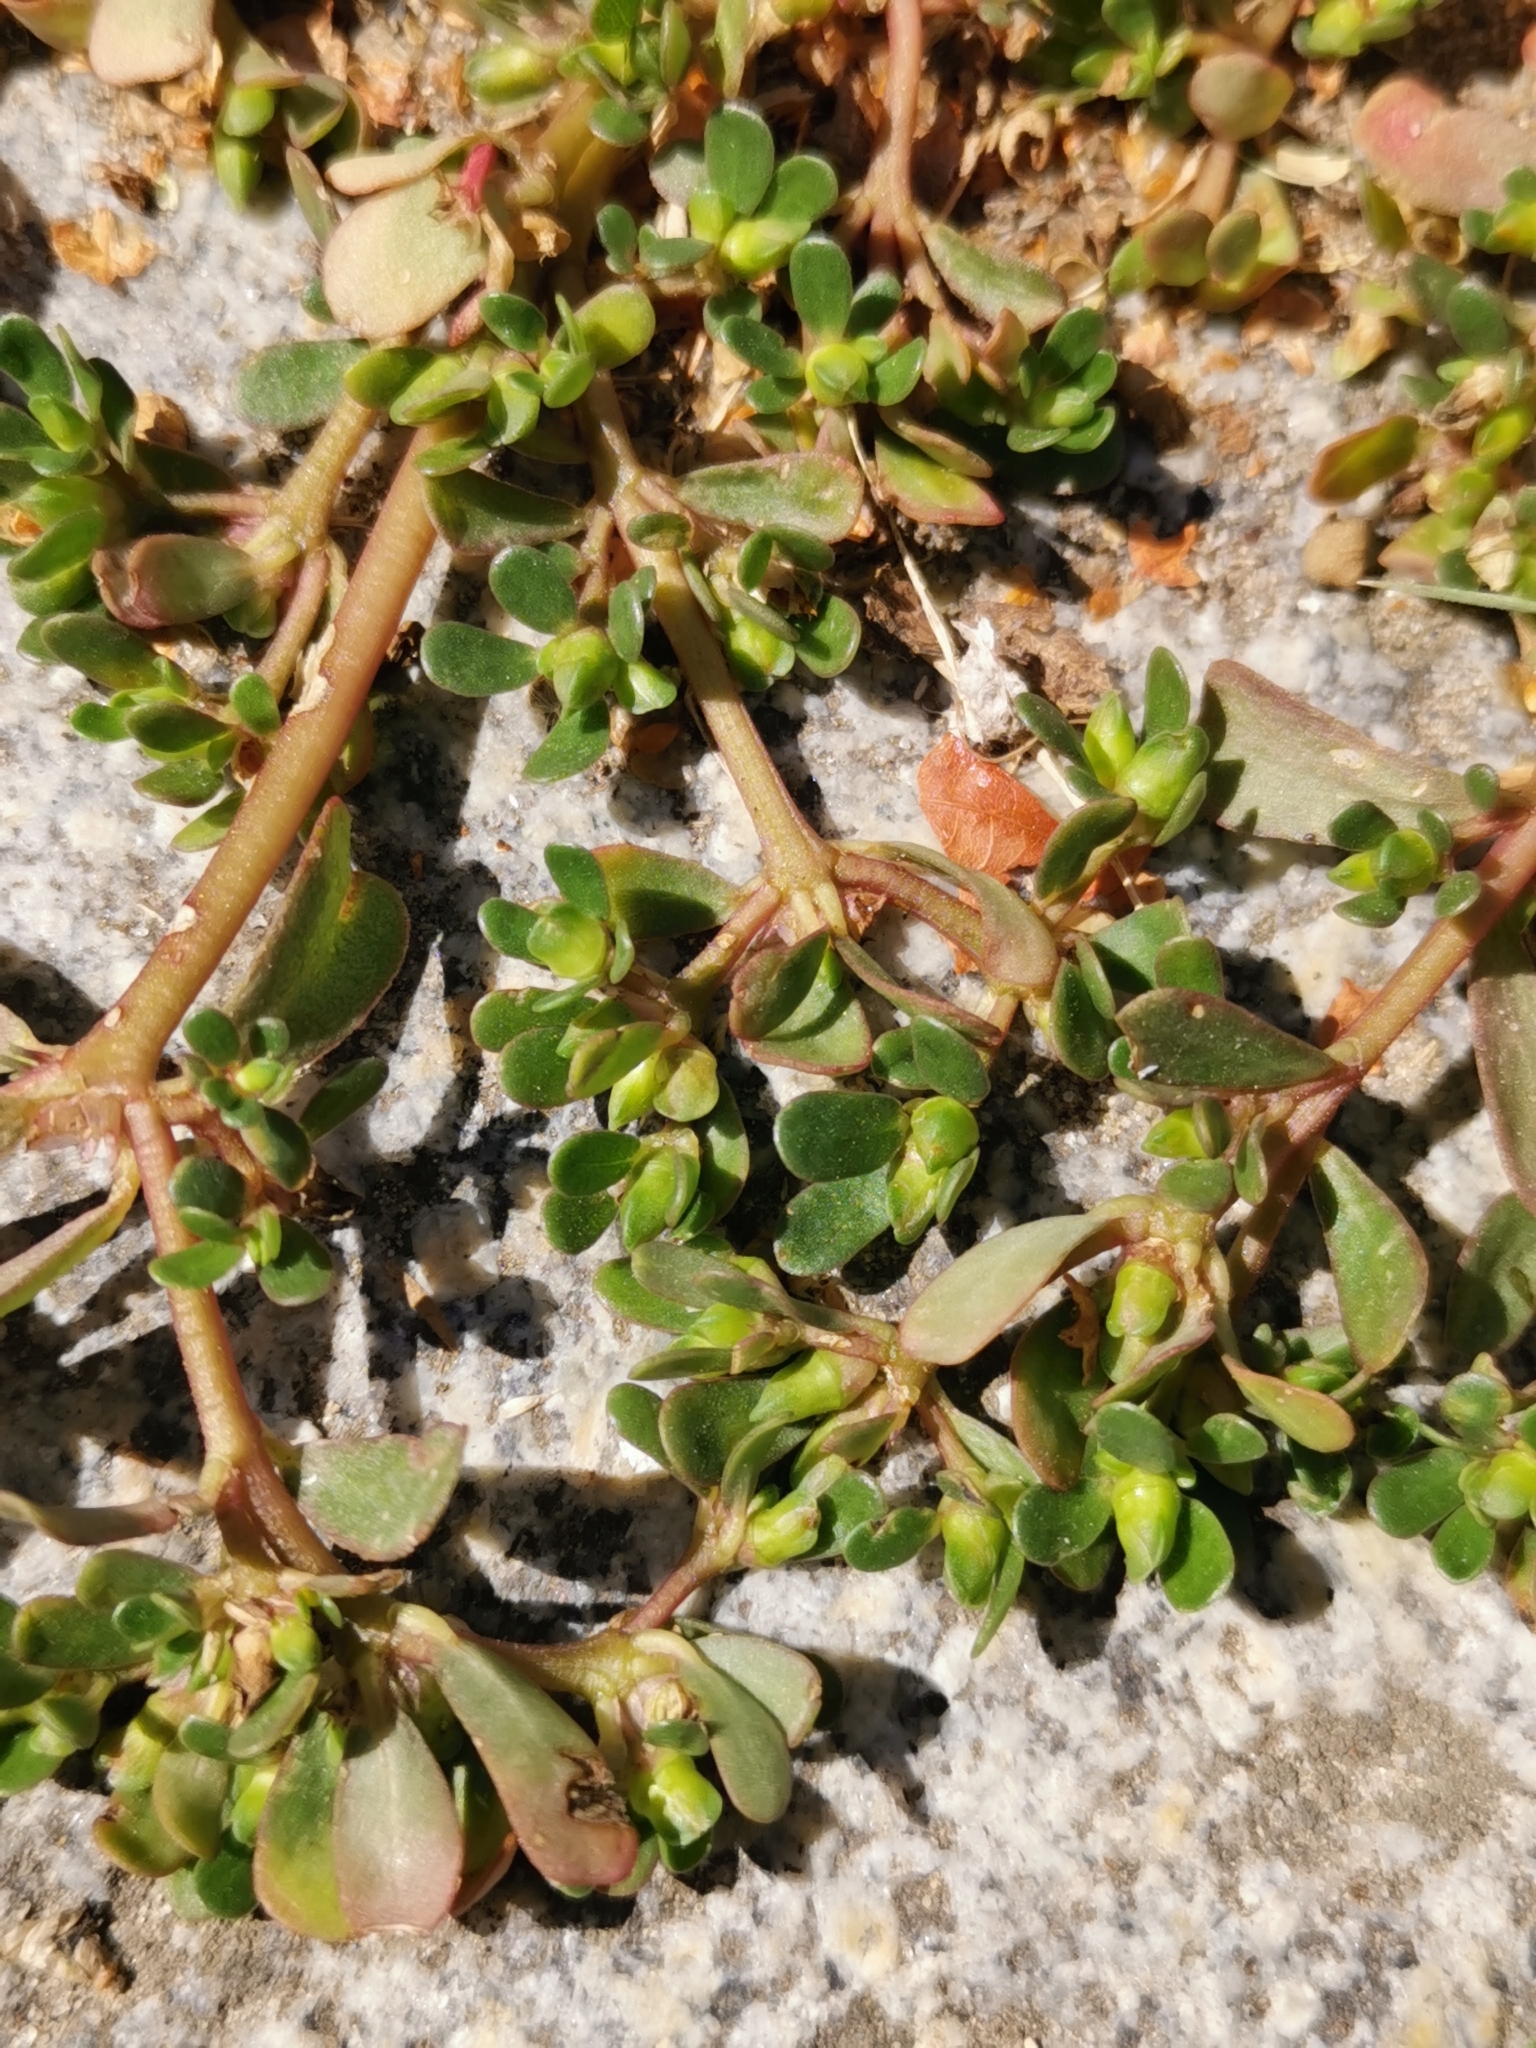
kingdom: Plantae
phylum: Tracheophyta
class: Magnoliopsida
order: Caryophyllales
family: Portulacaceae
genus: Portulaca
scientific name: Portulaca oleracea
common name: Common purslane
